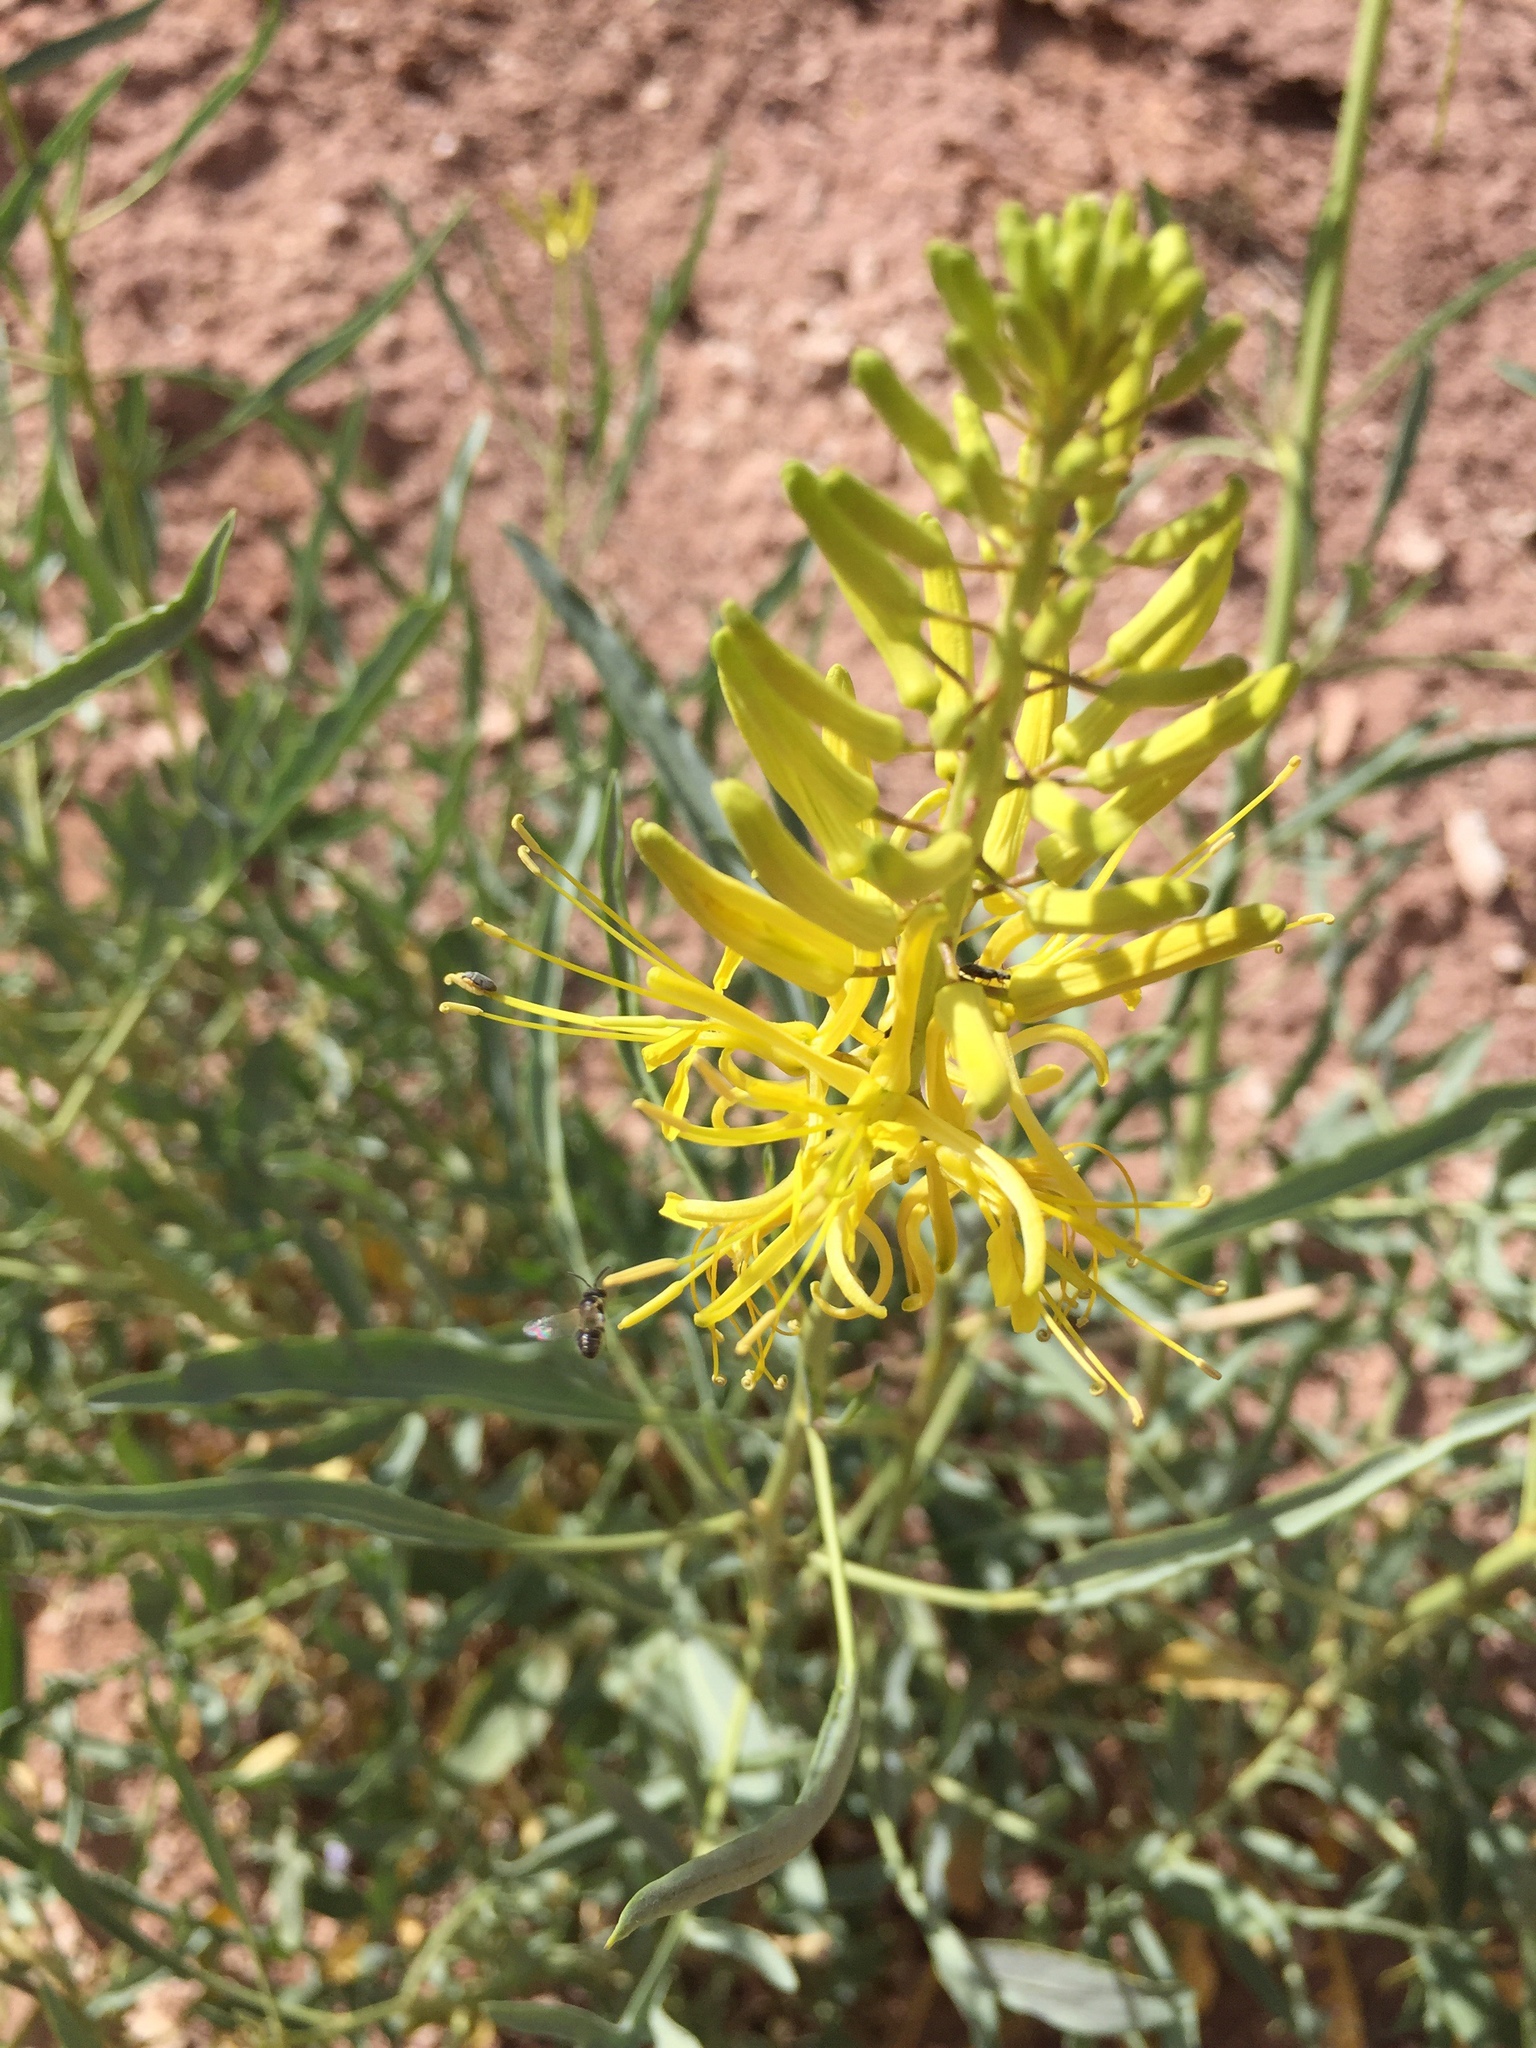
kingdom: Plantae
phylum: Tracheophyta
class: Magnoliopsida
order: Brassicales
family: Brassicaceae
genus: Stanleya
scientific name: Stanleya pinnata
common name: Prince's-plume
